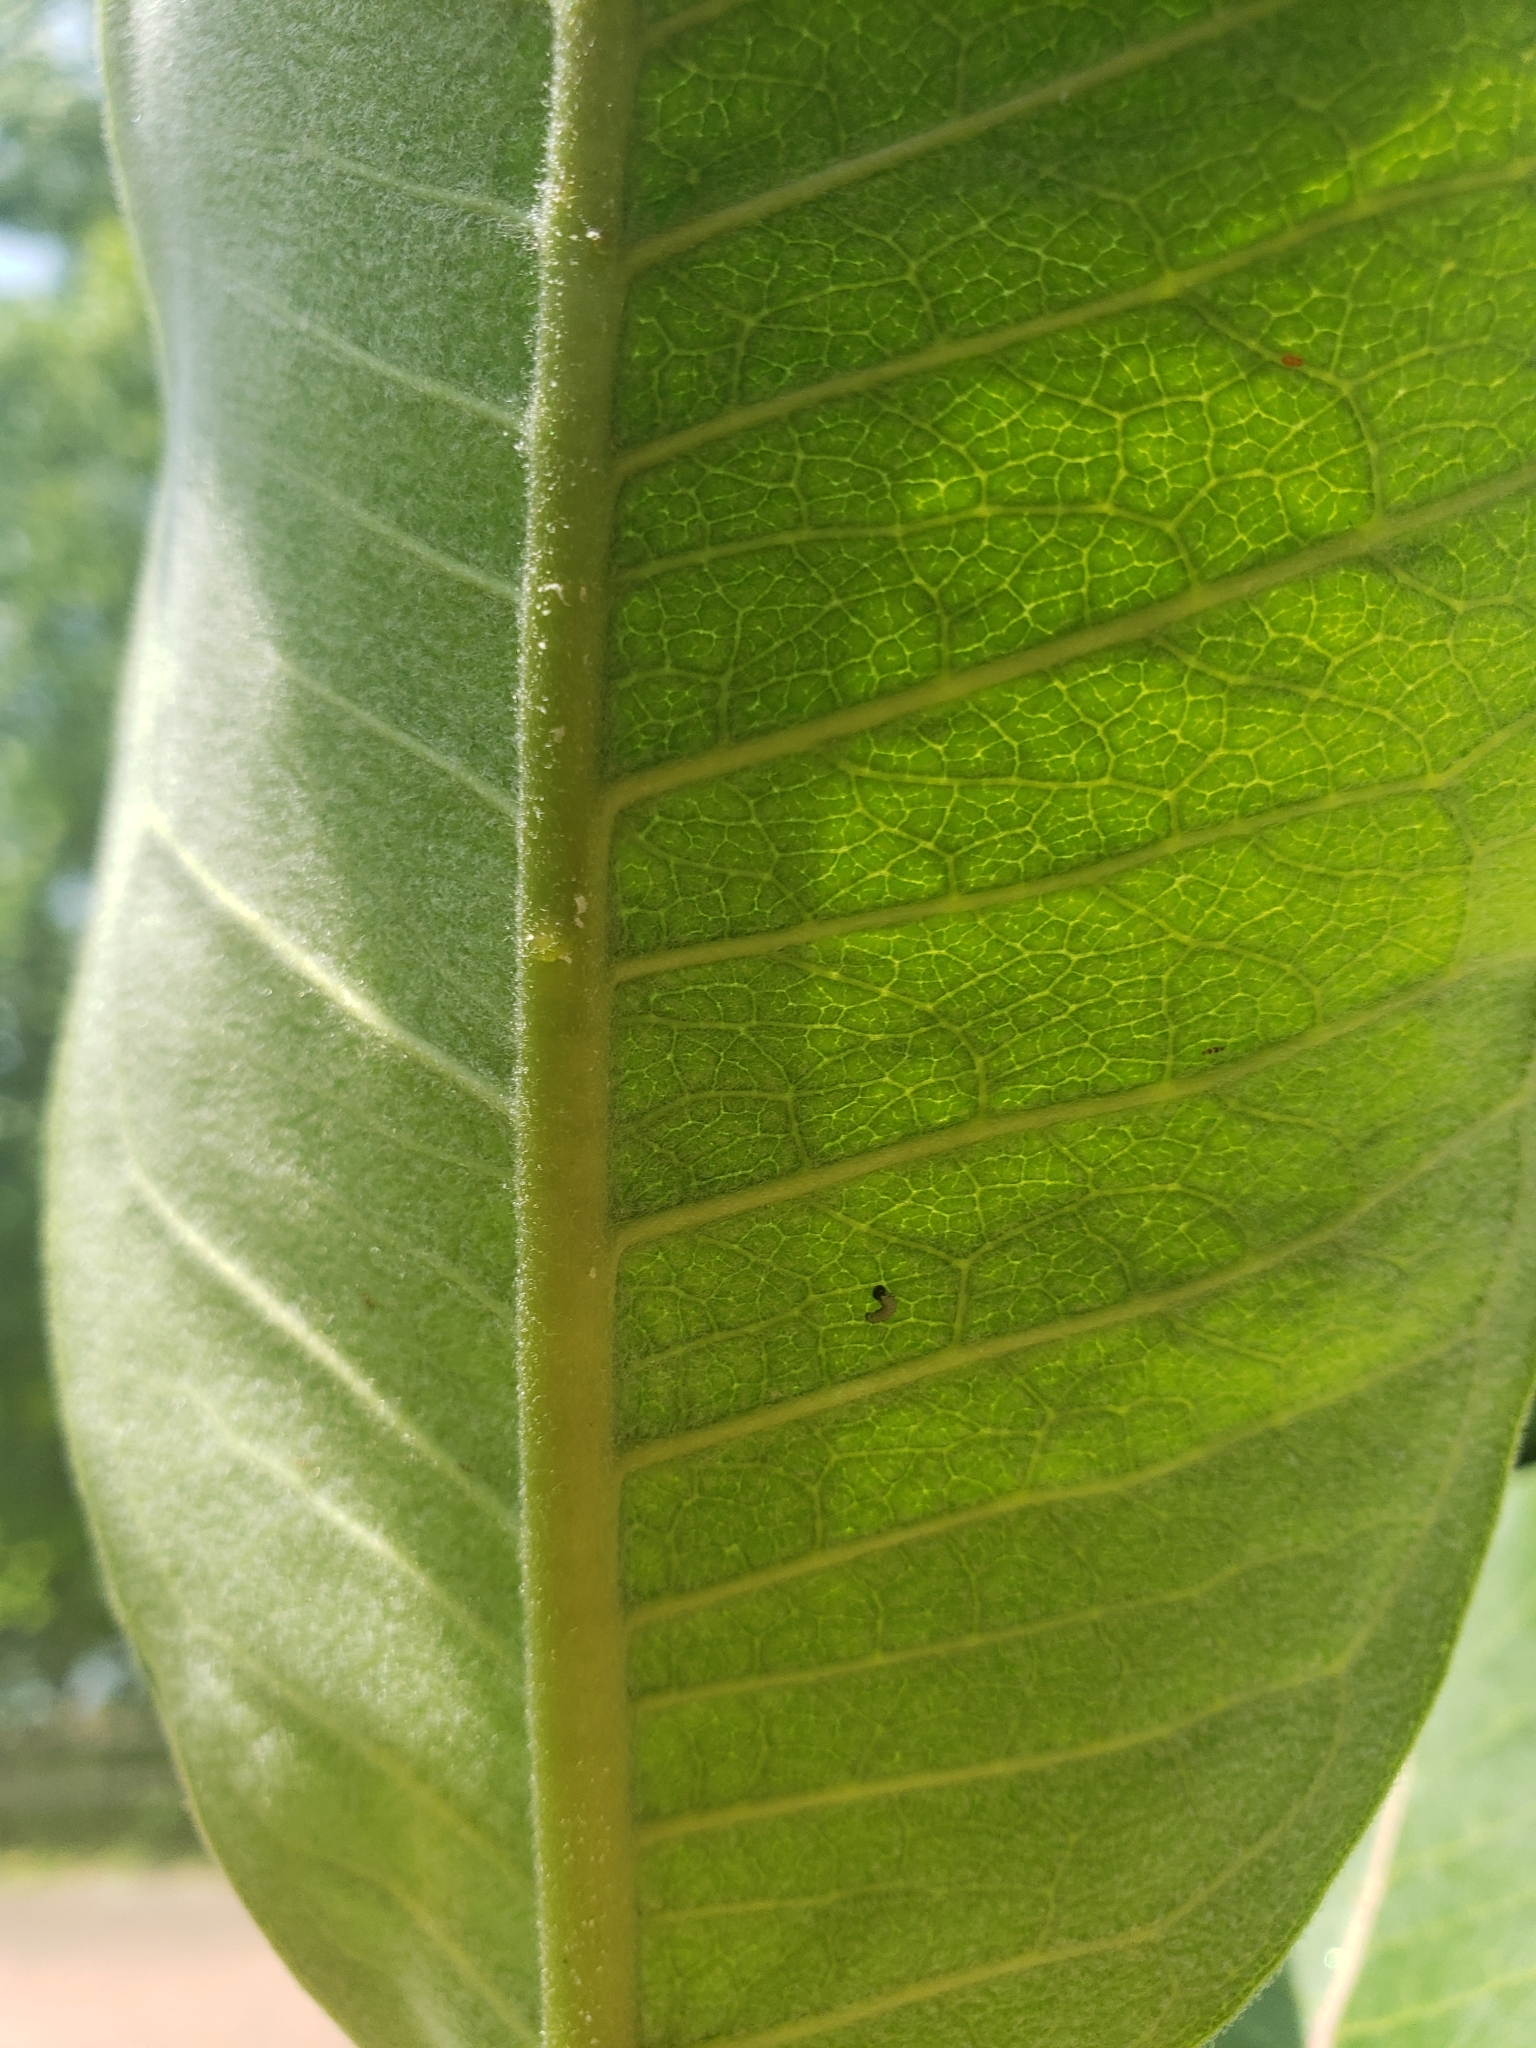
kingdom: Animalia
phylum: Arthropoda
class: Insecta
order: Lepidoptera
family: Nymphalidae
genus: Danaus
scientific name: Danaus plexippus
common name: Monarch
